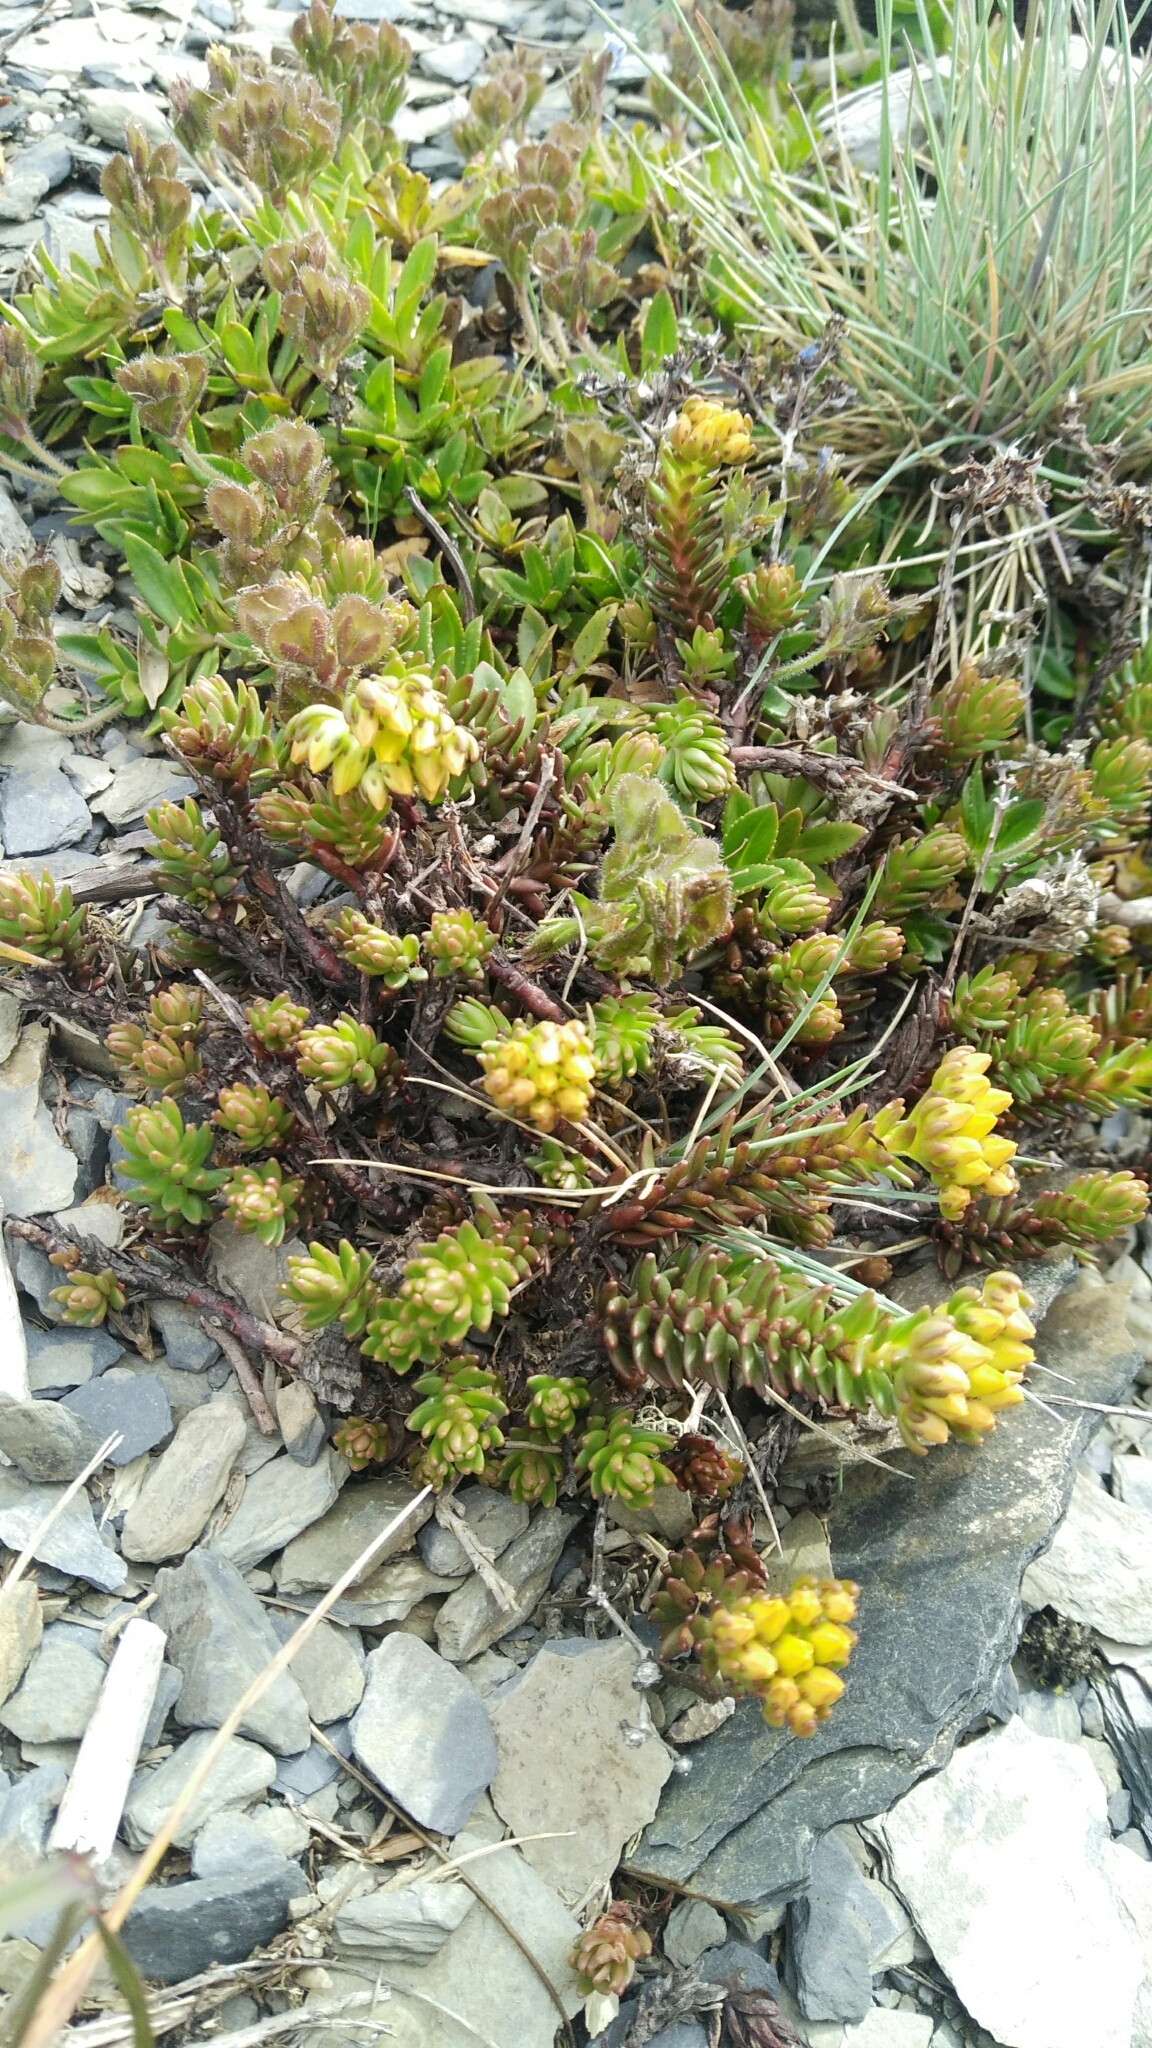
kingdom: Plantae
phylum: Tracheophyta
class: Magnoliopsida
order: Saxifragales
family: Crassulaceae
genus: Sedum
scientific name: Sedum morrisonense
